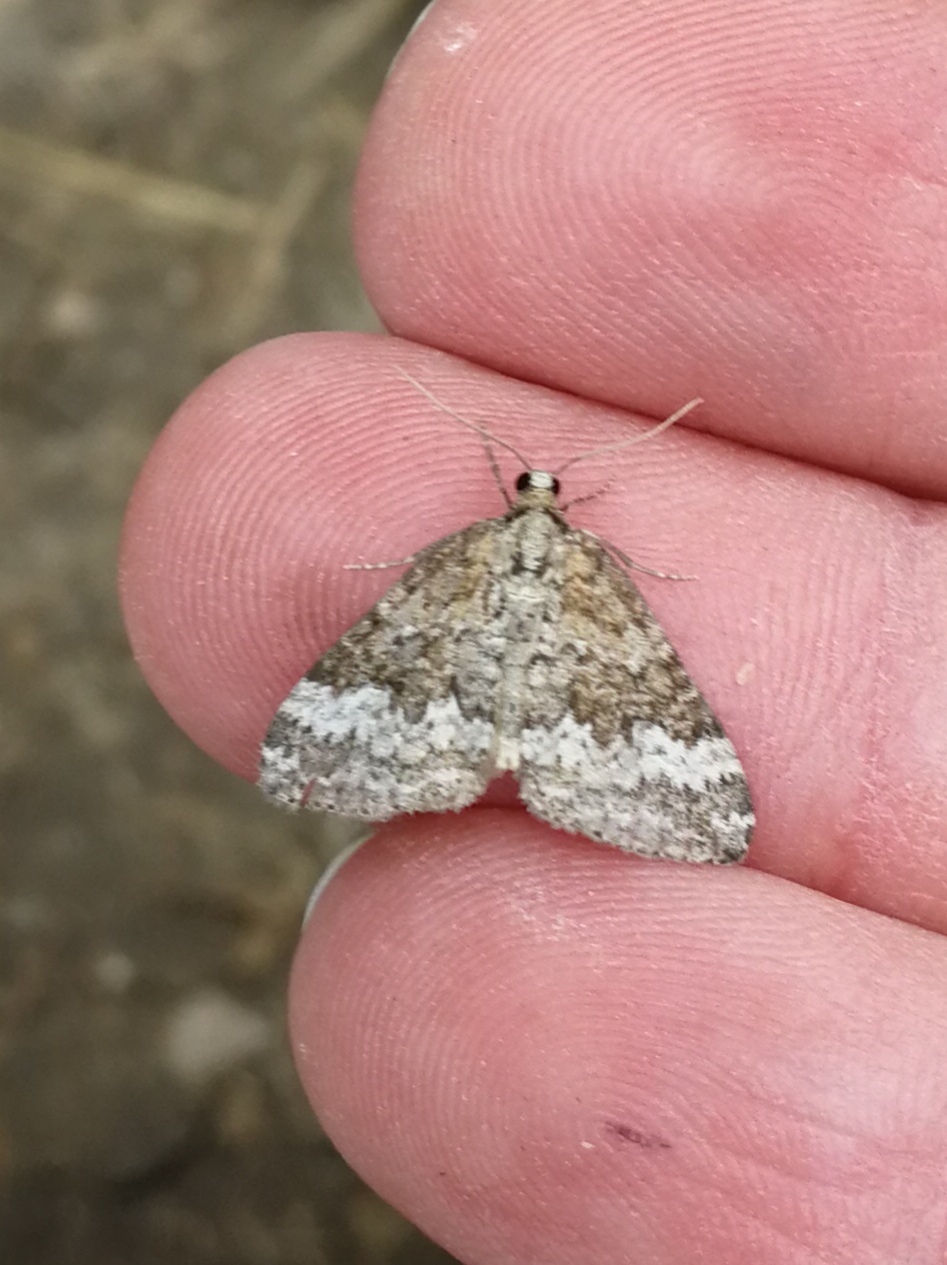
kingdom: Animalia
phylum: Arthropoda
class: Insecta
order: Lepidoptera
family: Geometridae
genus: Perizoma
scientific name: Perizoma hydrata
